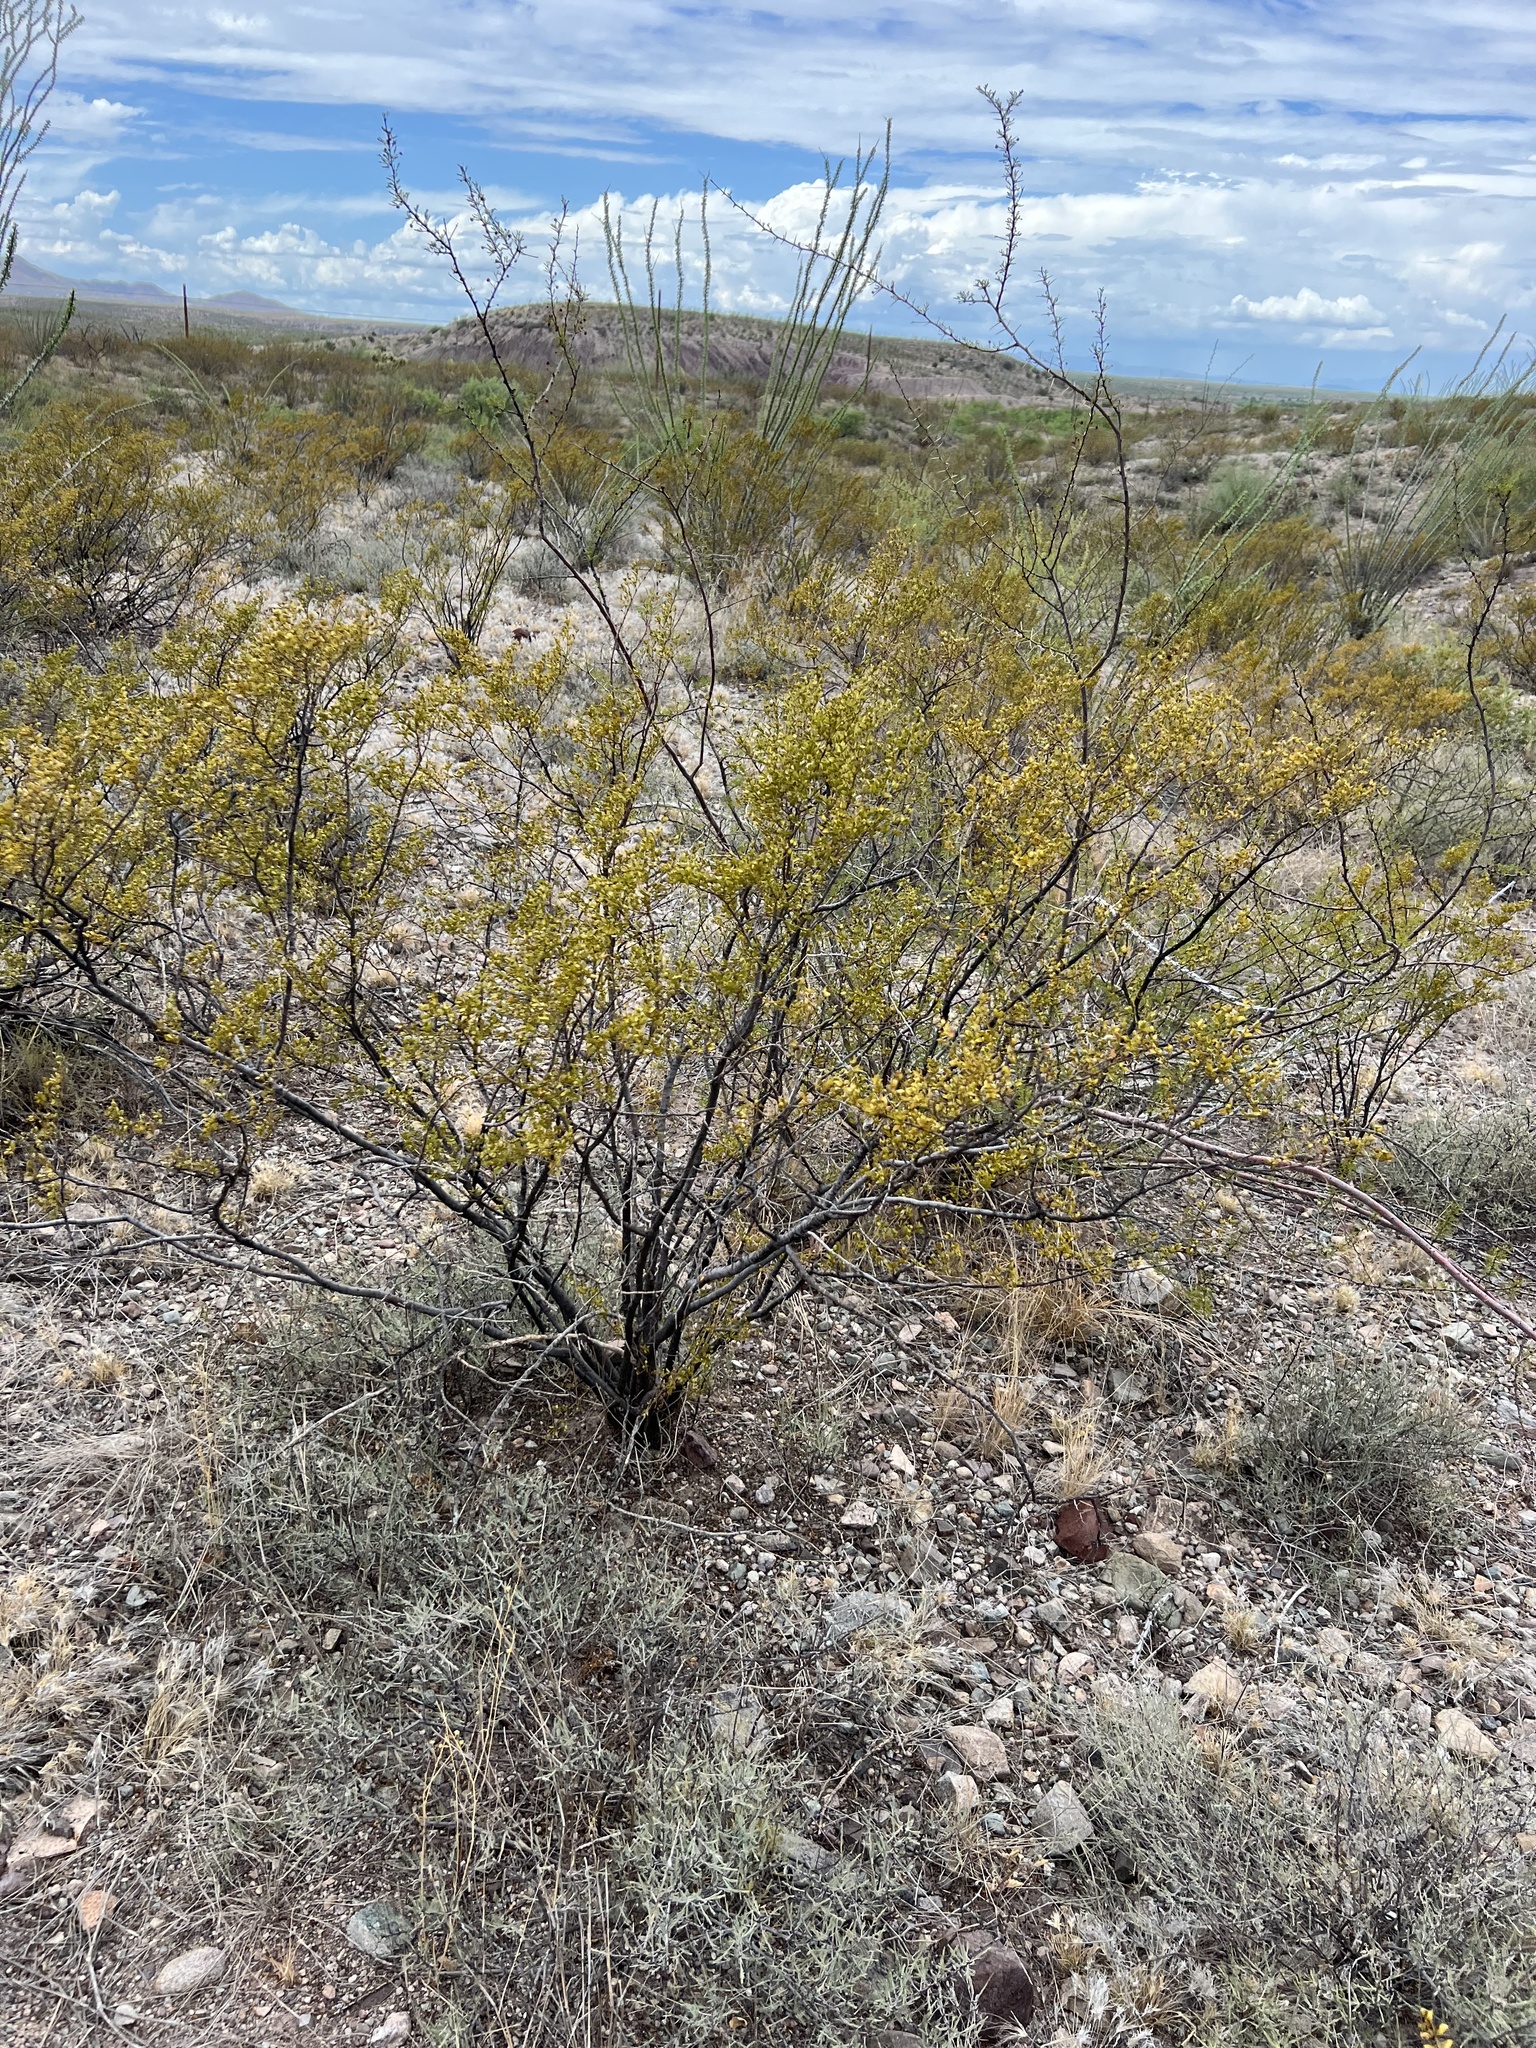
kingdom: Plantae
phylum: Tracheophyta
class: Magnoliopsida
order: Zygophyllales
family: Zygophyllaceae
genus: Larrea
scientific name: Larrea tridentata
